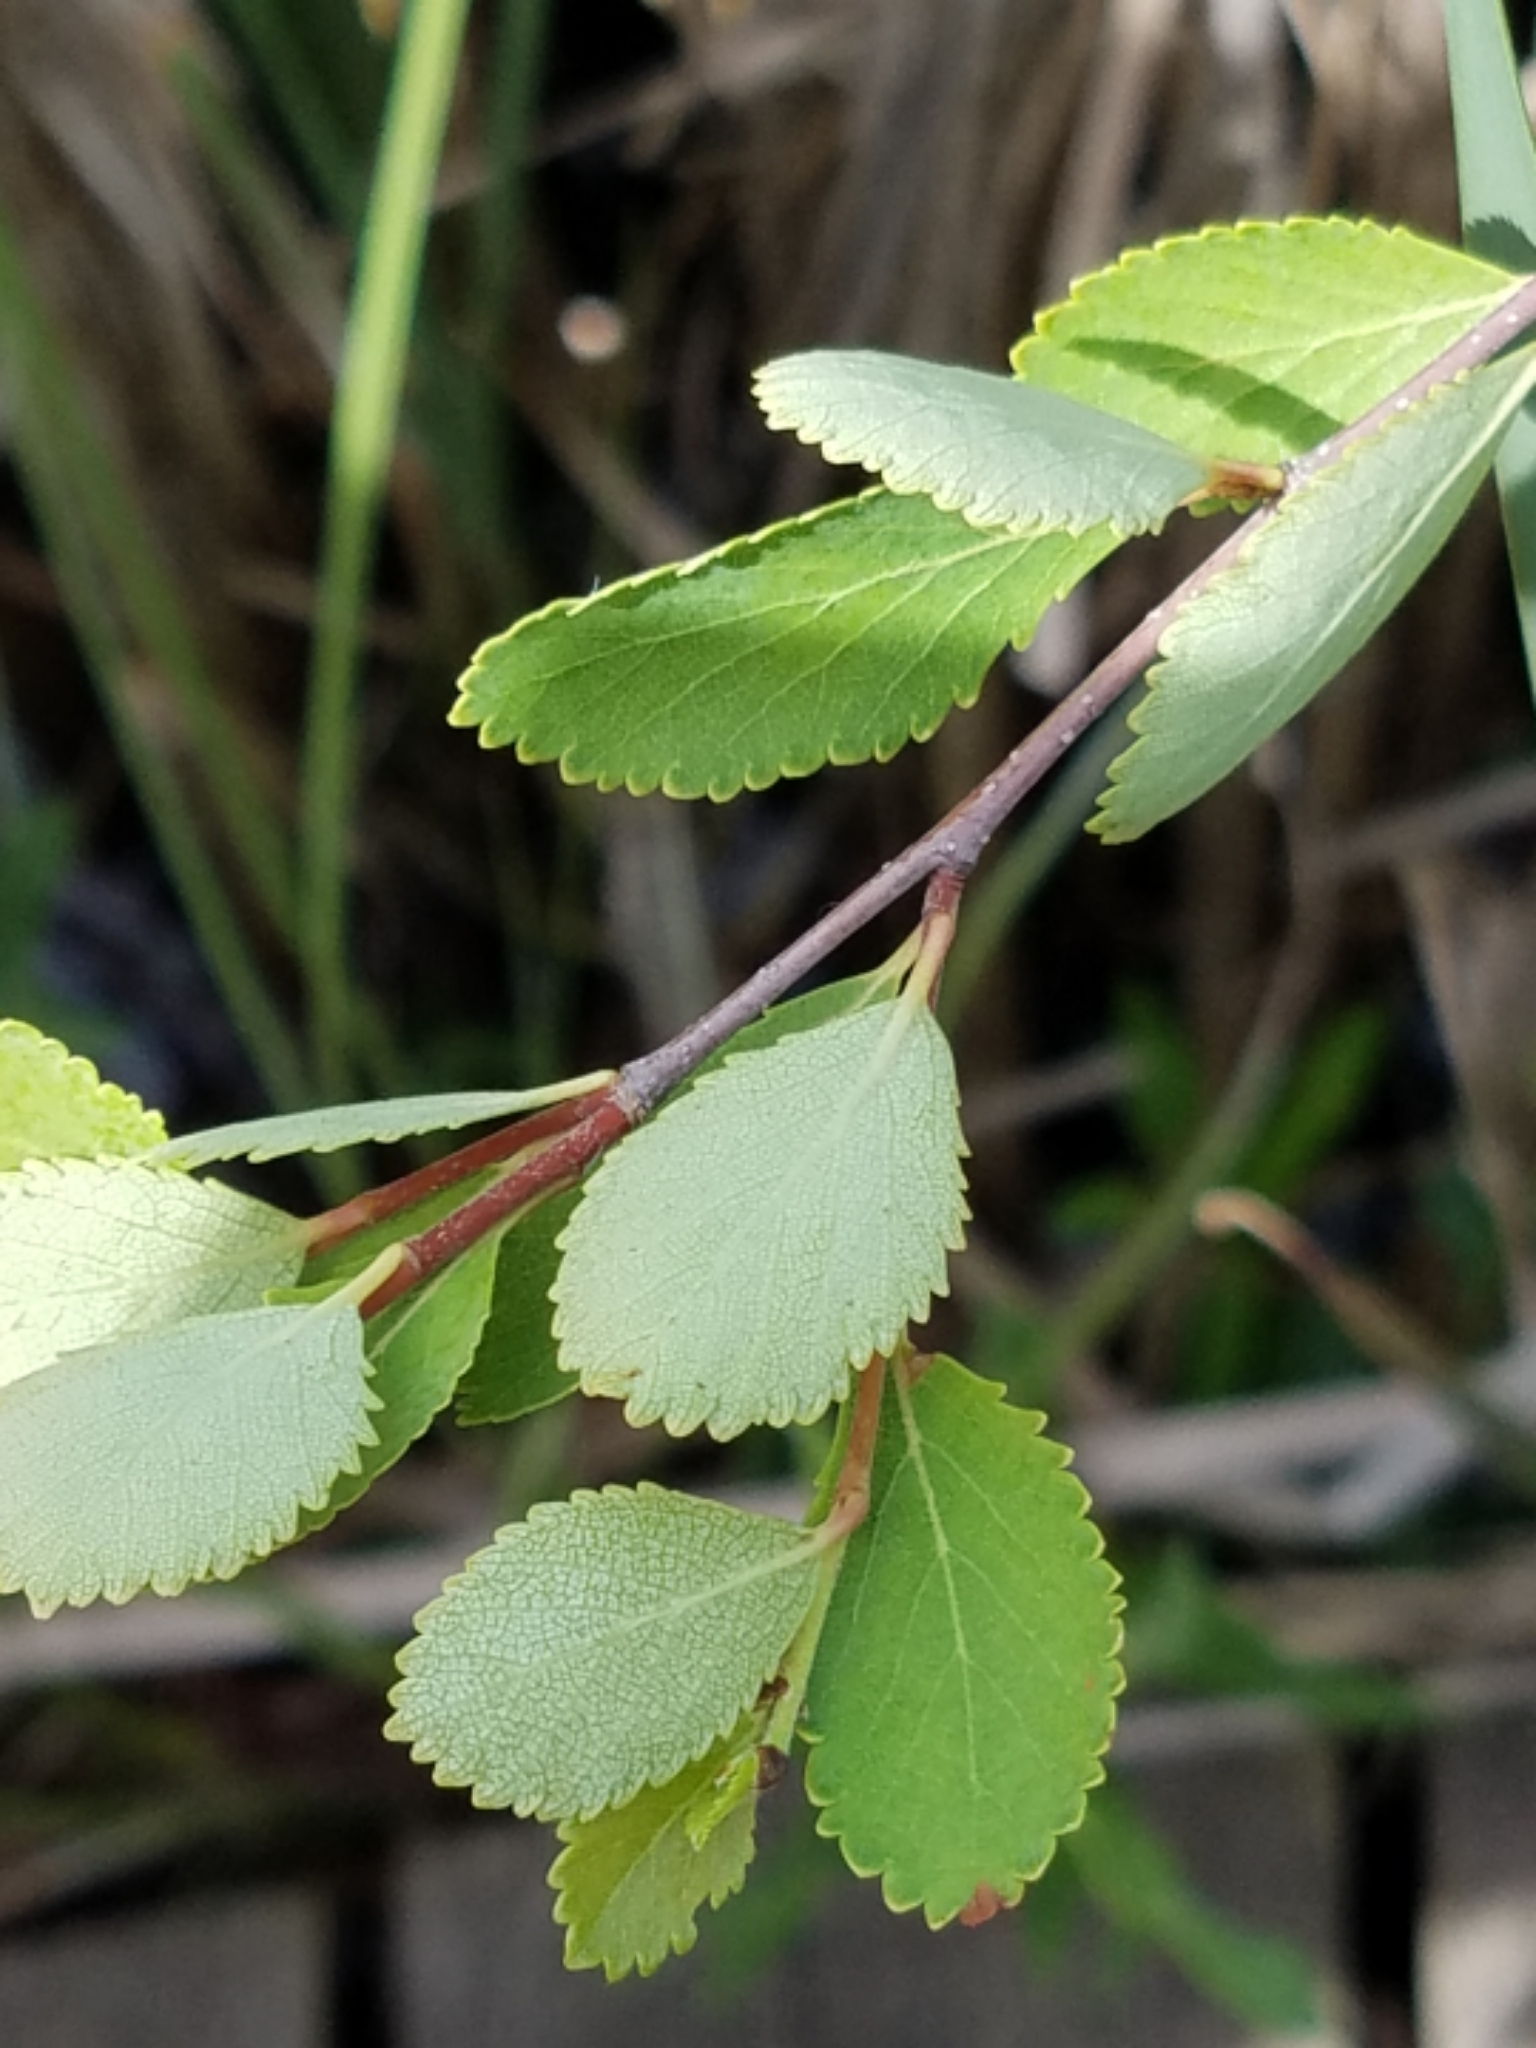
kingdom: Plantae
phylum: Tracheophyta
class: Magnoliopsida
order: Fagales
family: Betulaceae
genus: Betula
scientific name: Betula pumila
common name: Bog birch
